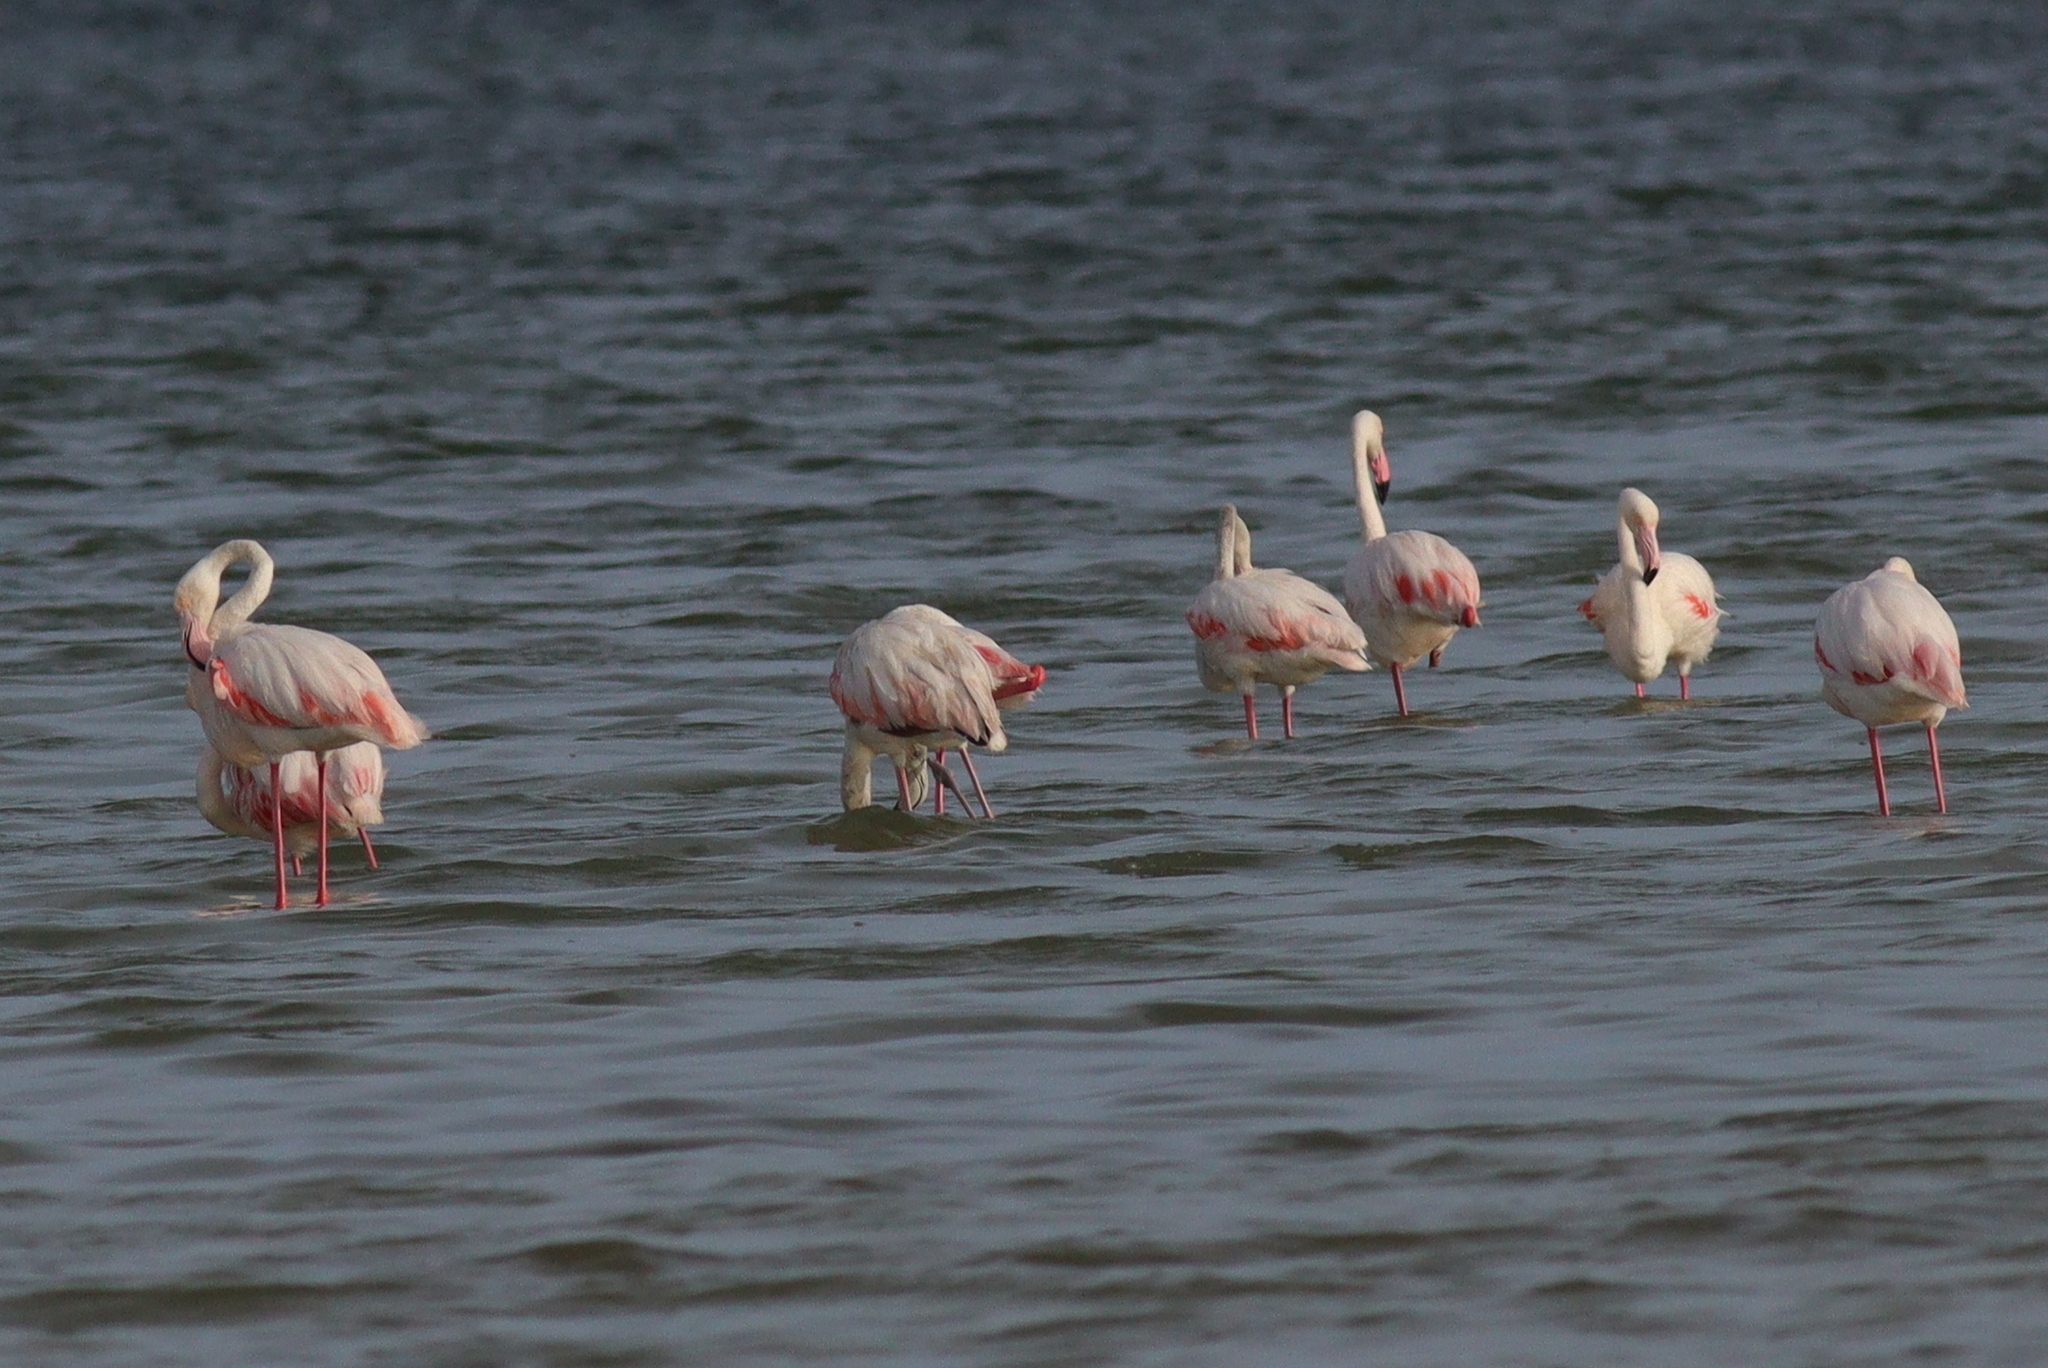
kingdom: Animalia
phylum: Chordata
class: Aves
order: Phoenicopteriformes
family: Phoenicopteridae
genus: Phoenicopterus
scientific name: Phoenicopterus roseus
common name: Greater flamingo
